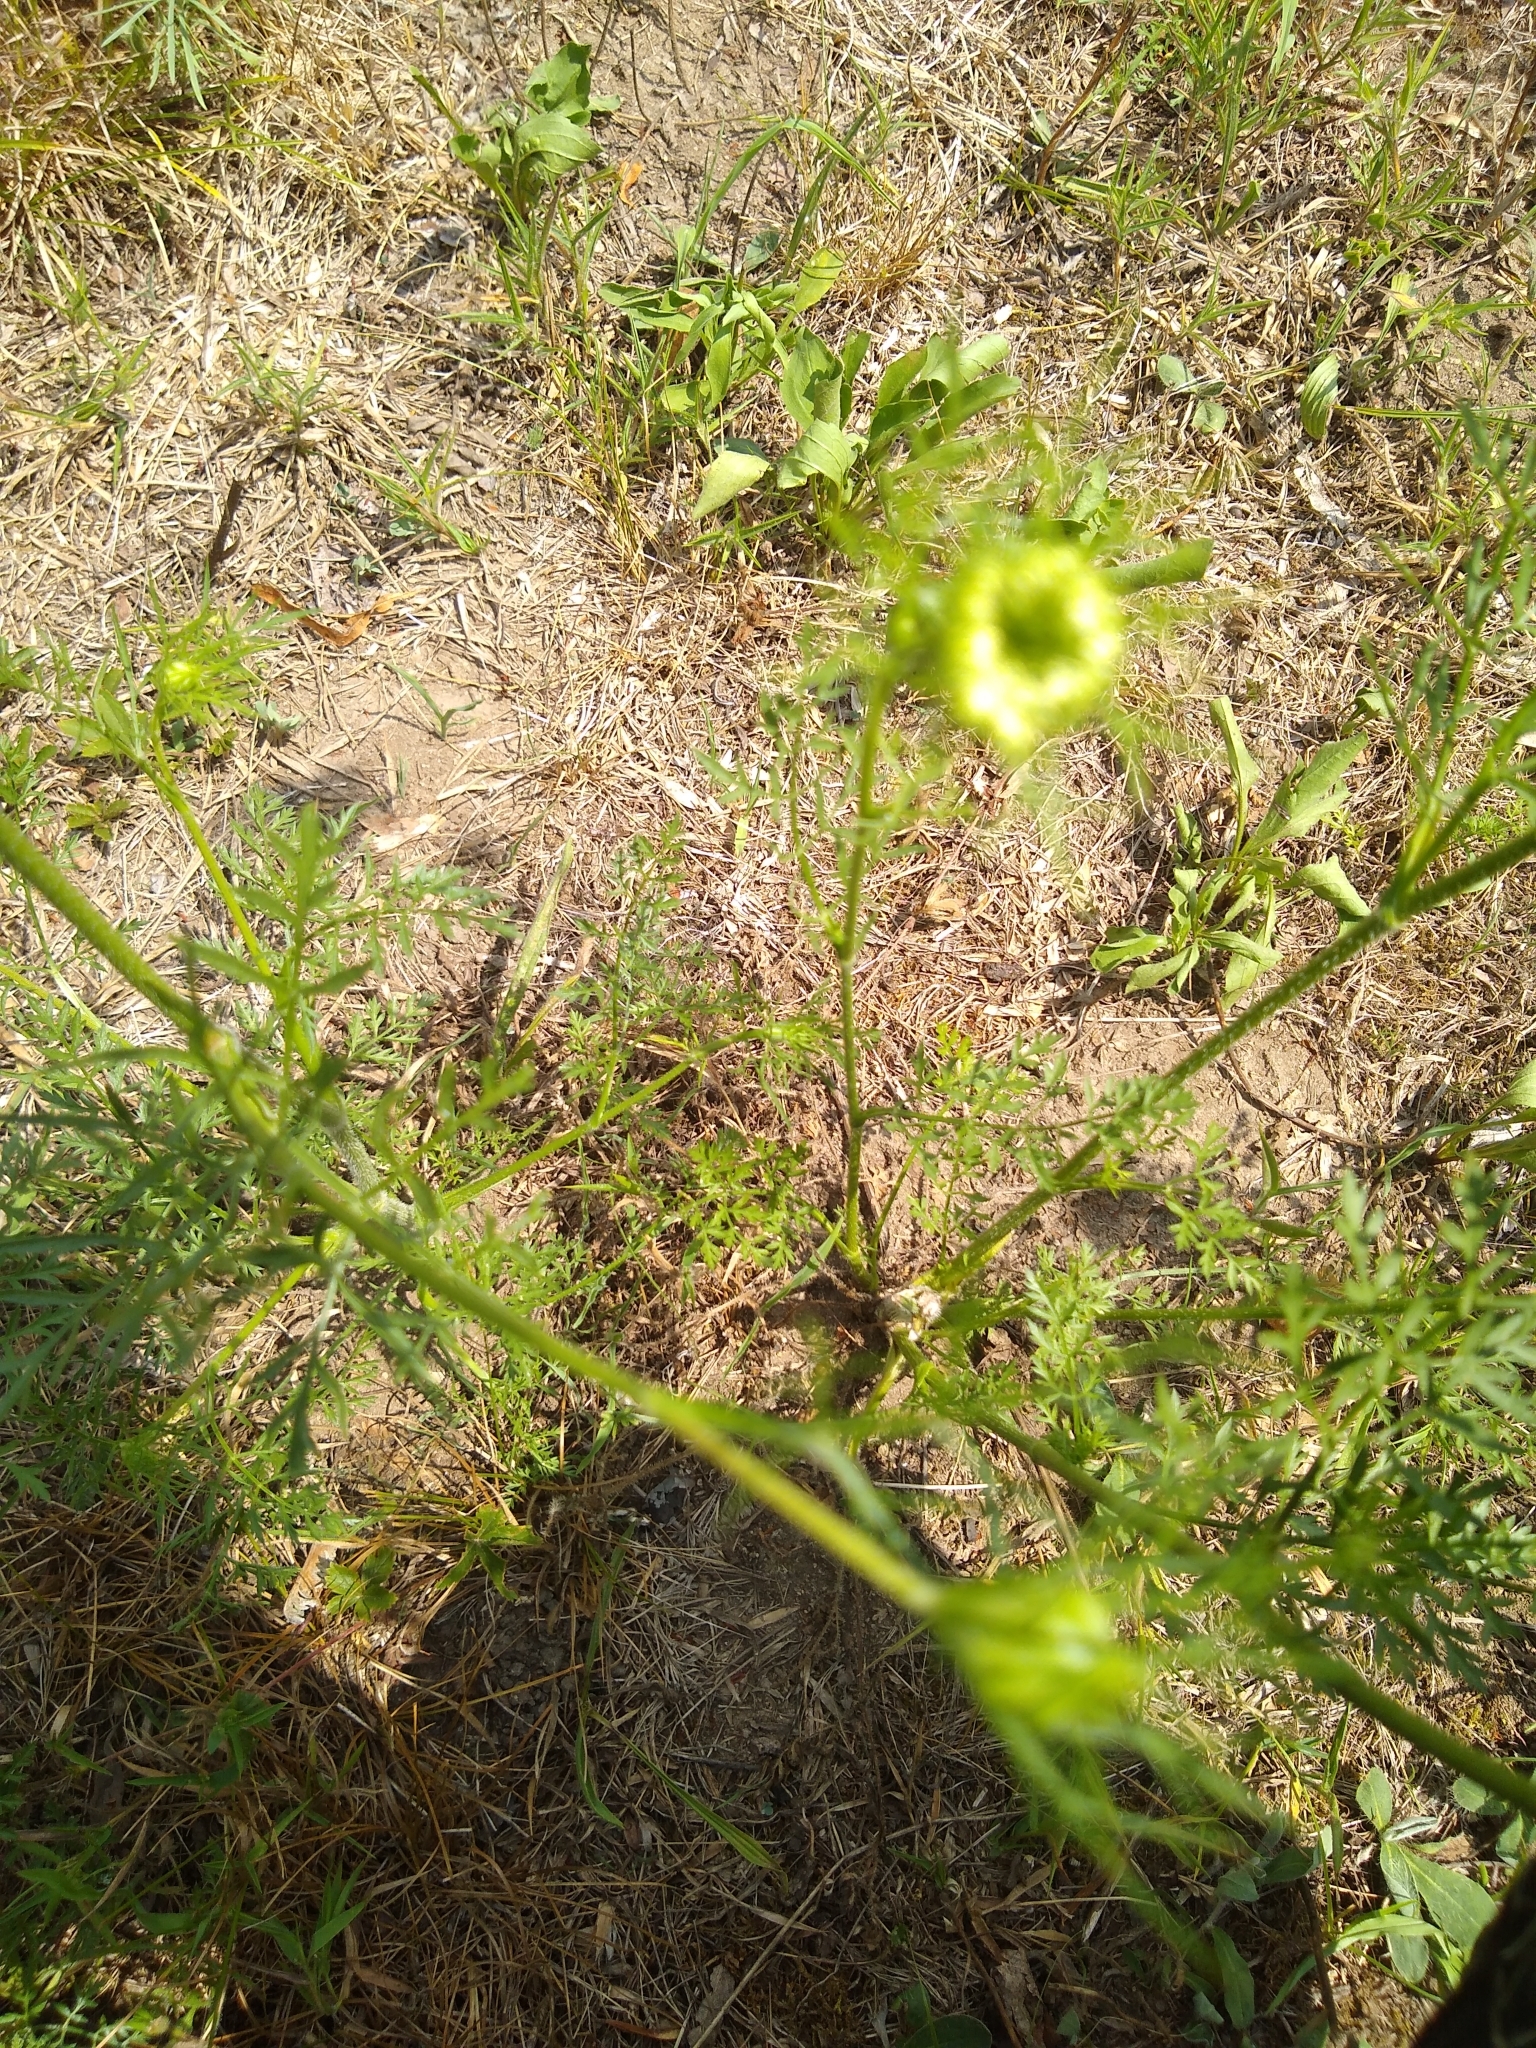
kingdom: Plantae
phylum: Tracheophyta
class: Magnoliopsida
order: Apiales
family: Apiaceae
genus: Daucus
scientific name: Daucus carota
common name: Wild carrot
